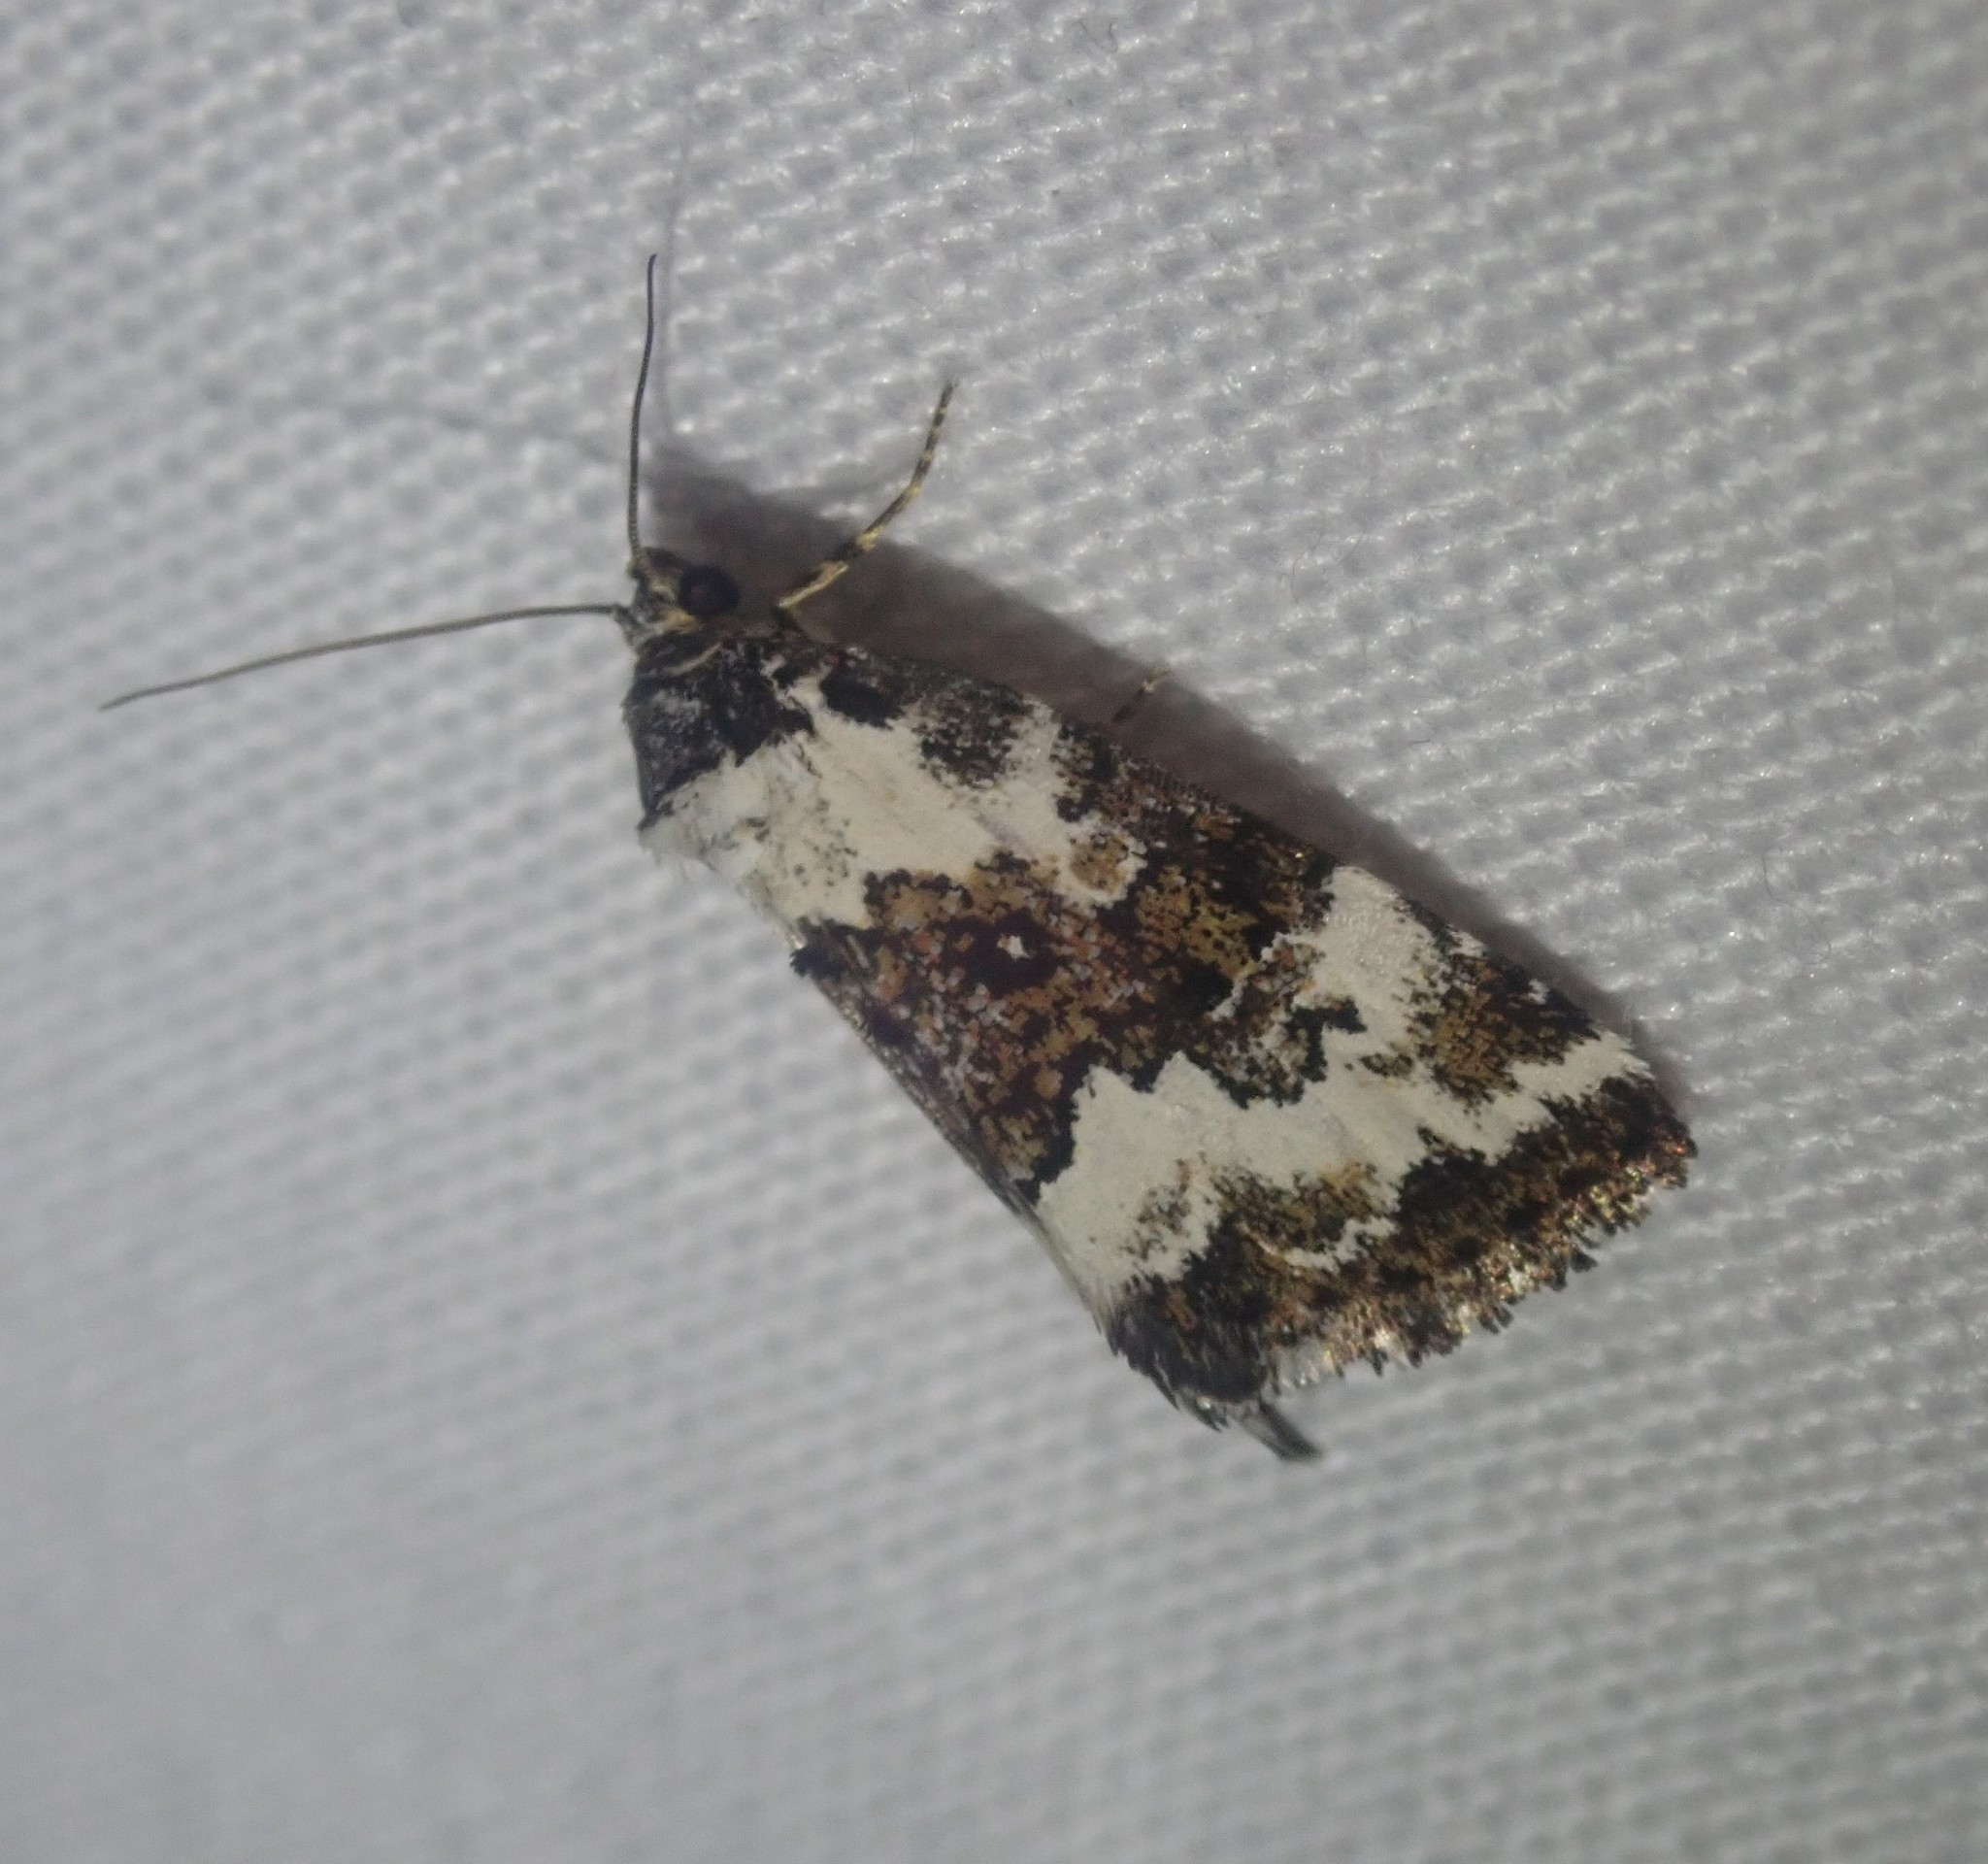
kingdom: Animalia
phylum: Arthropoda
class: Insecta
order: Lepidoptera
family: Noctuidae
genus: Deltote
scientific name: Deltote deceptoria
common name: Pretty marbled
